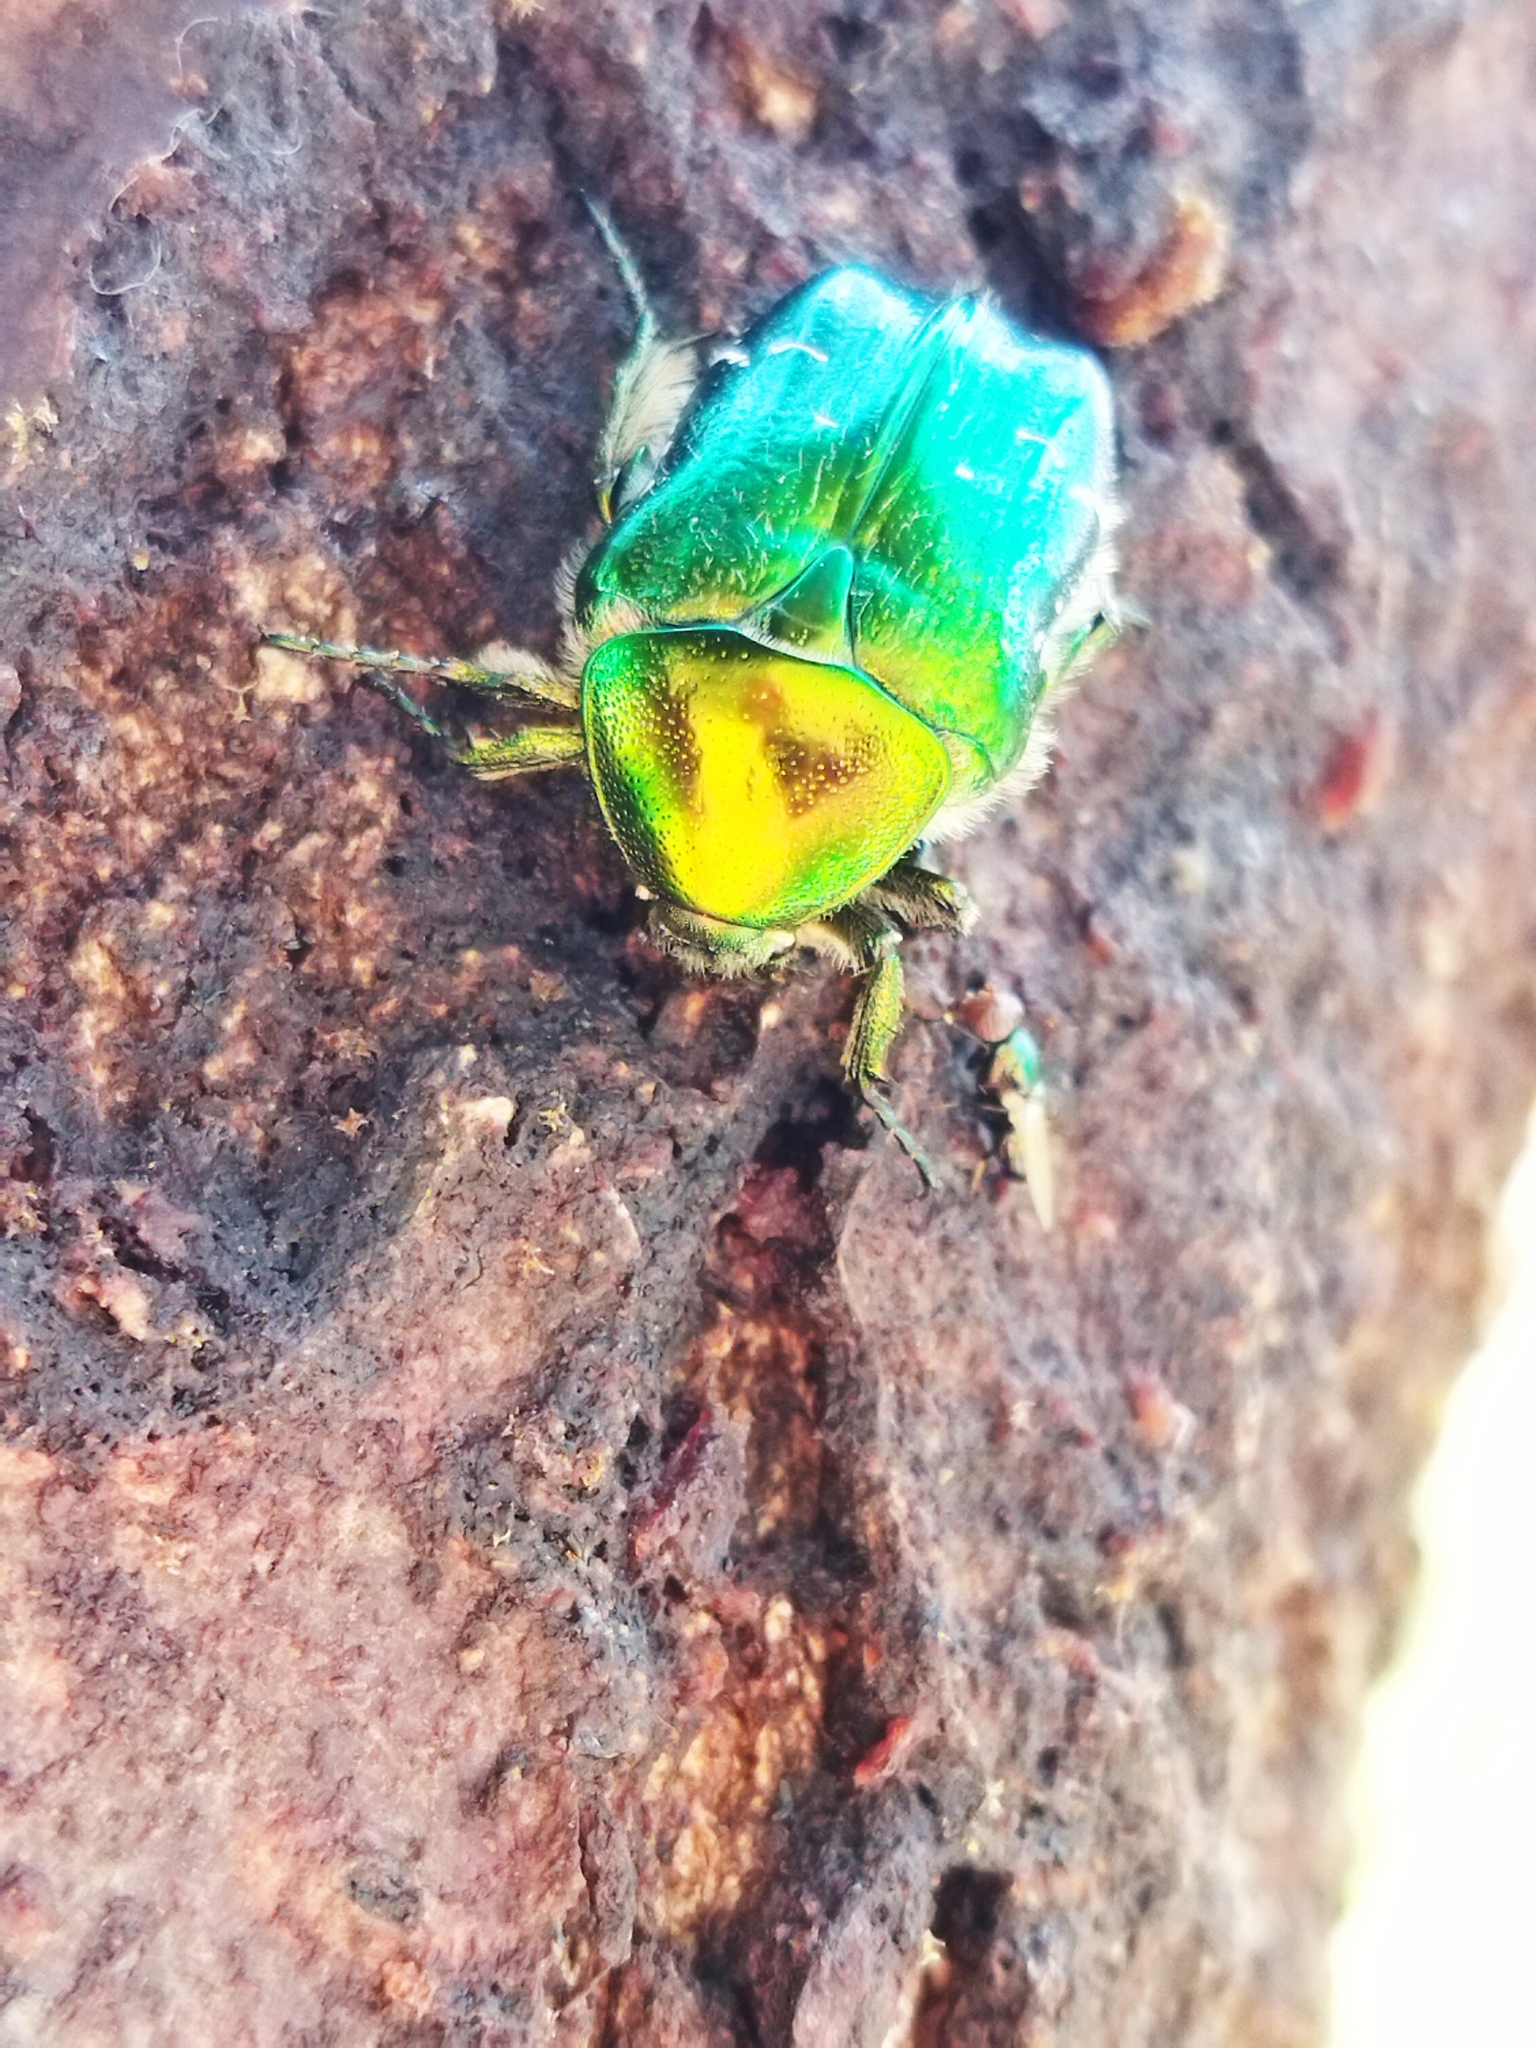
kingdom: Animalia
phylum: Arthropoda
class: Insecta
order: Coleoptera
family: Scarabaeidae
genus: Cetonia
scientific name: Cetonia aurata
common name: Rose chafer
